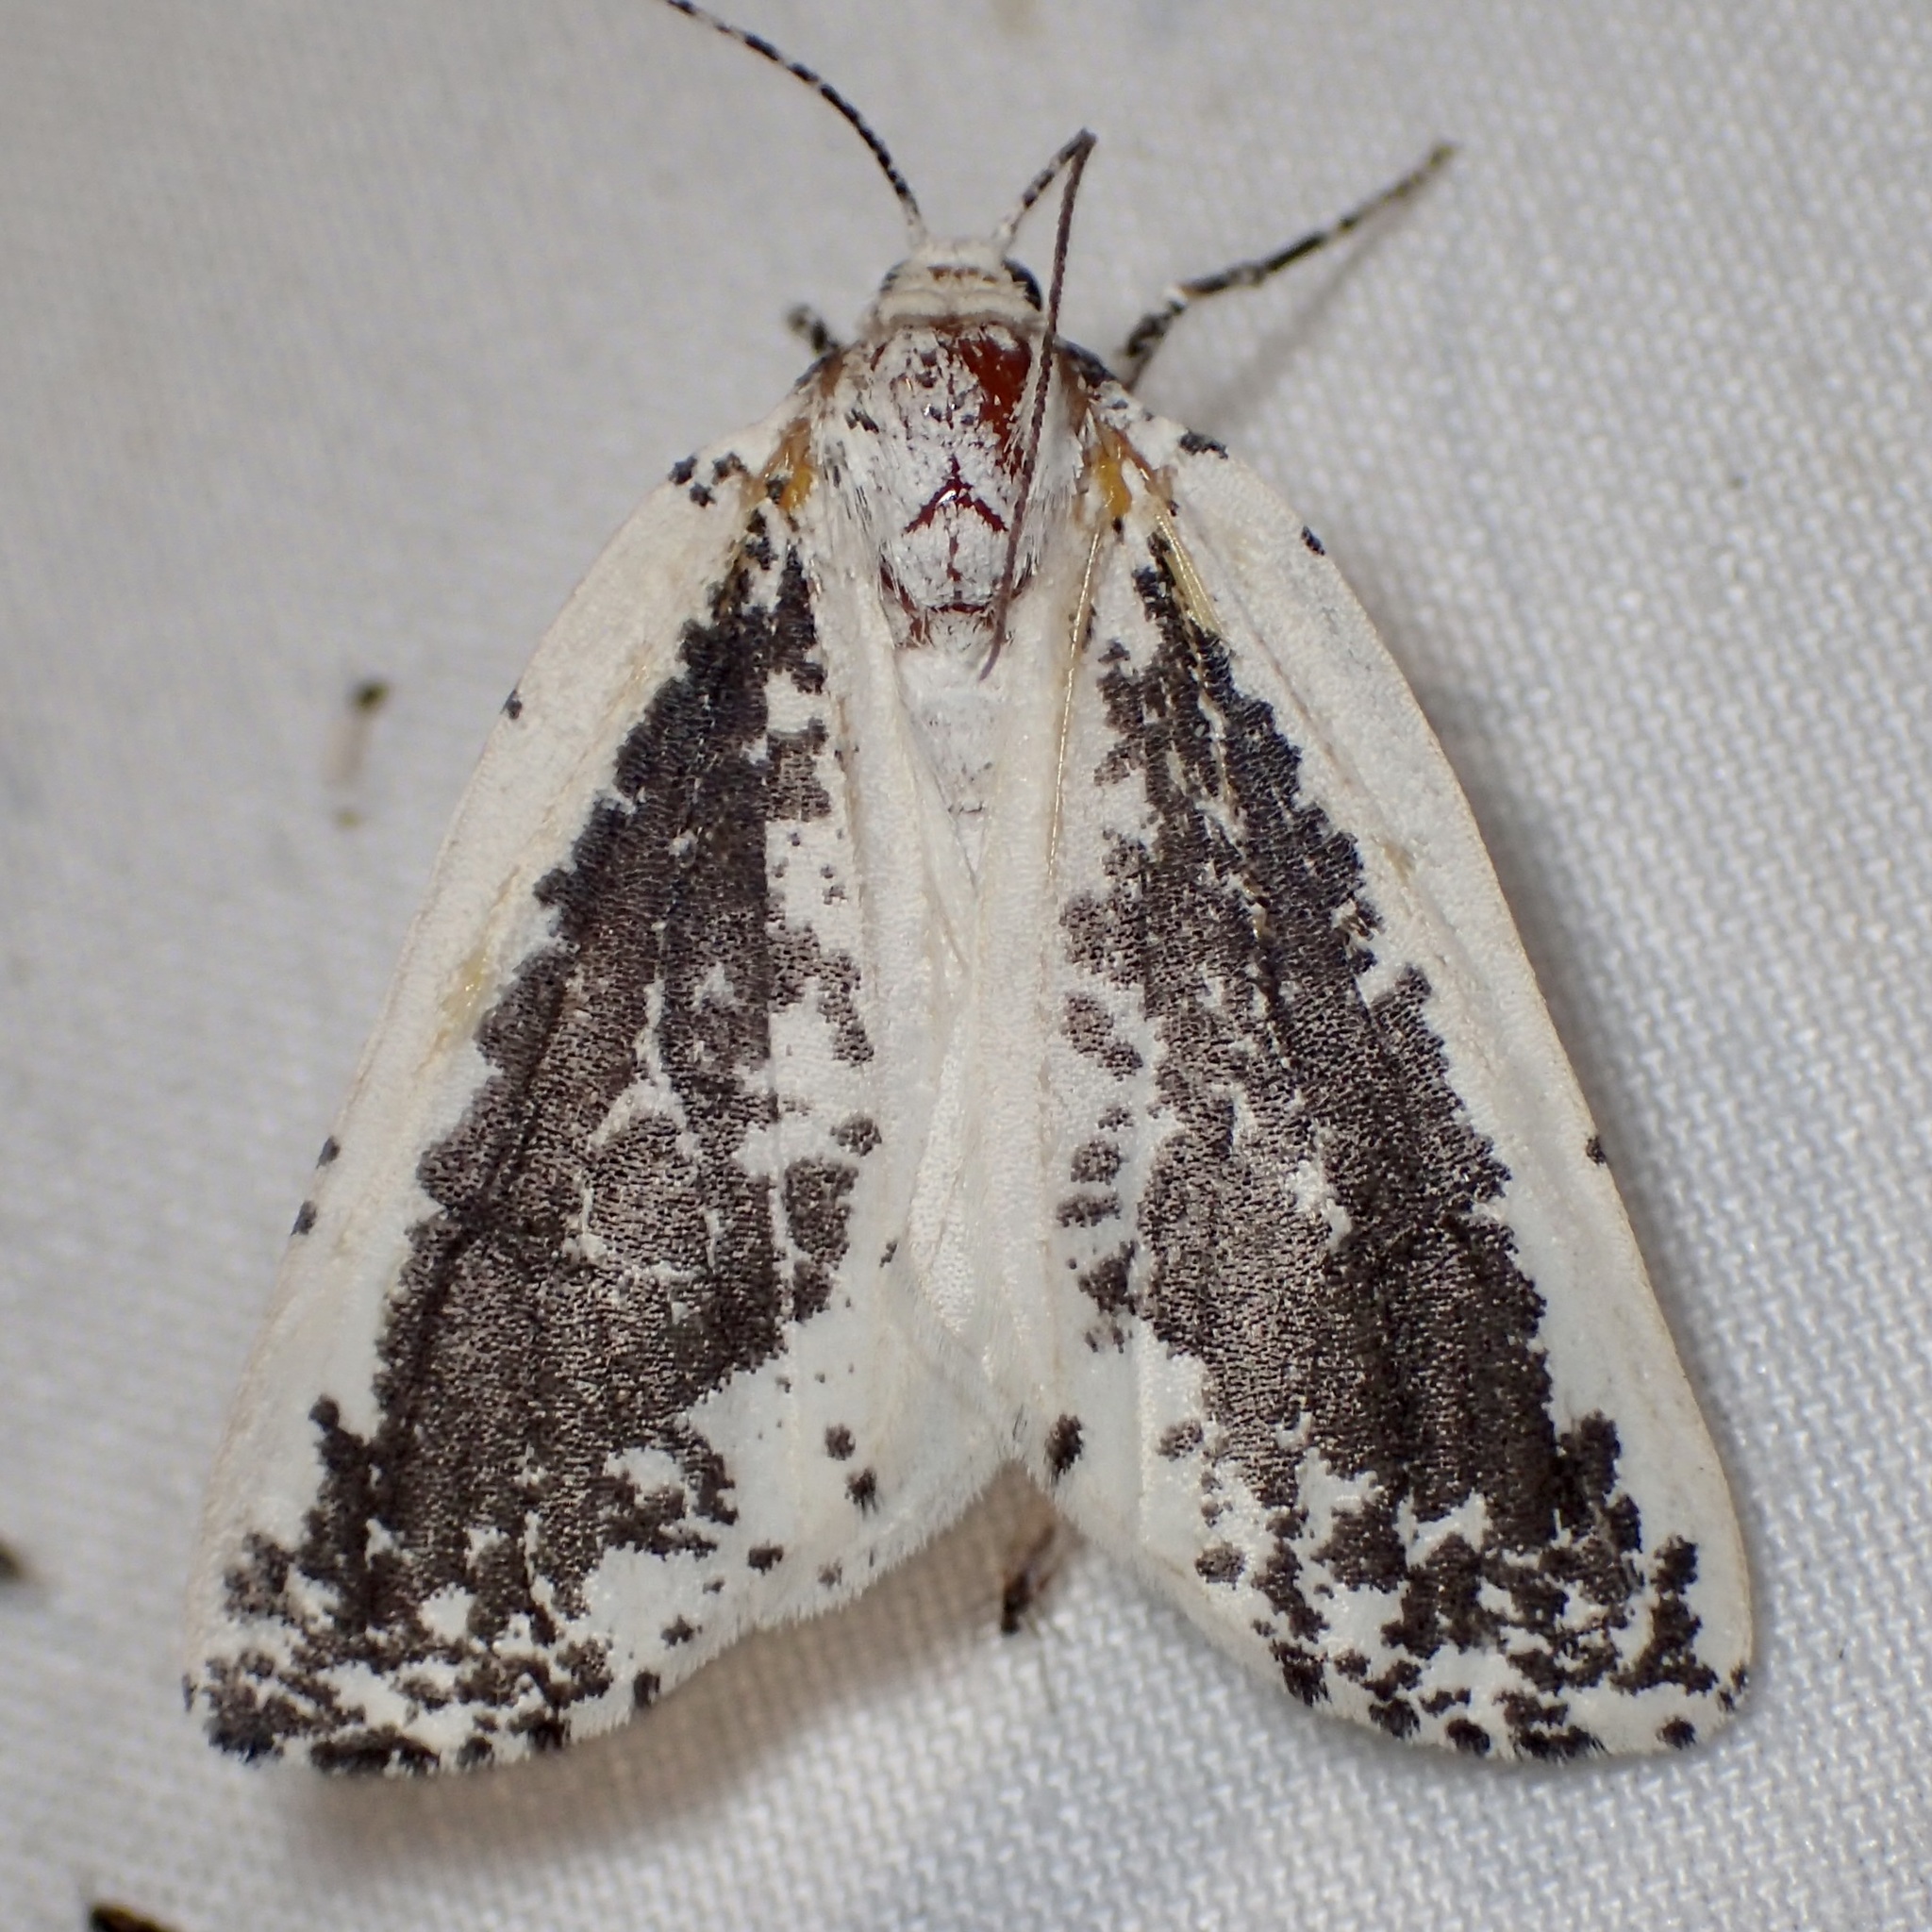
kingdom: Animalia
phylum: Arthropoda
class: Insecta
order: Lepidoptera
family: Geometridae
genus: Eucaterva
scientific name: Eucaterva variaria
